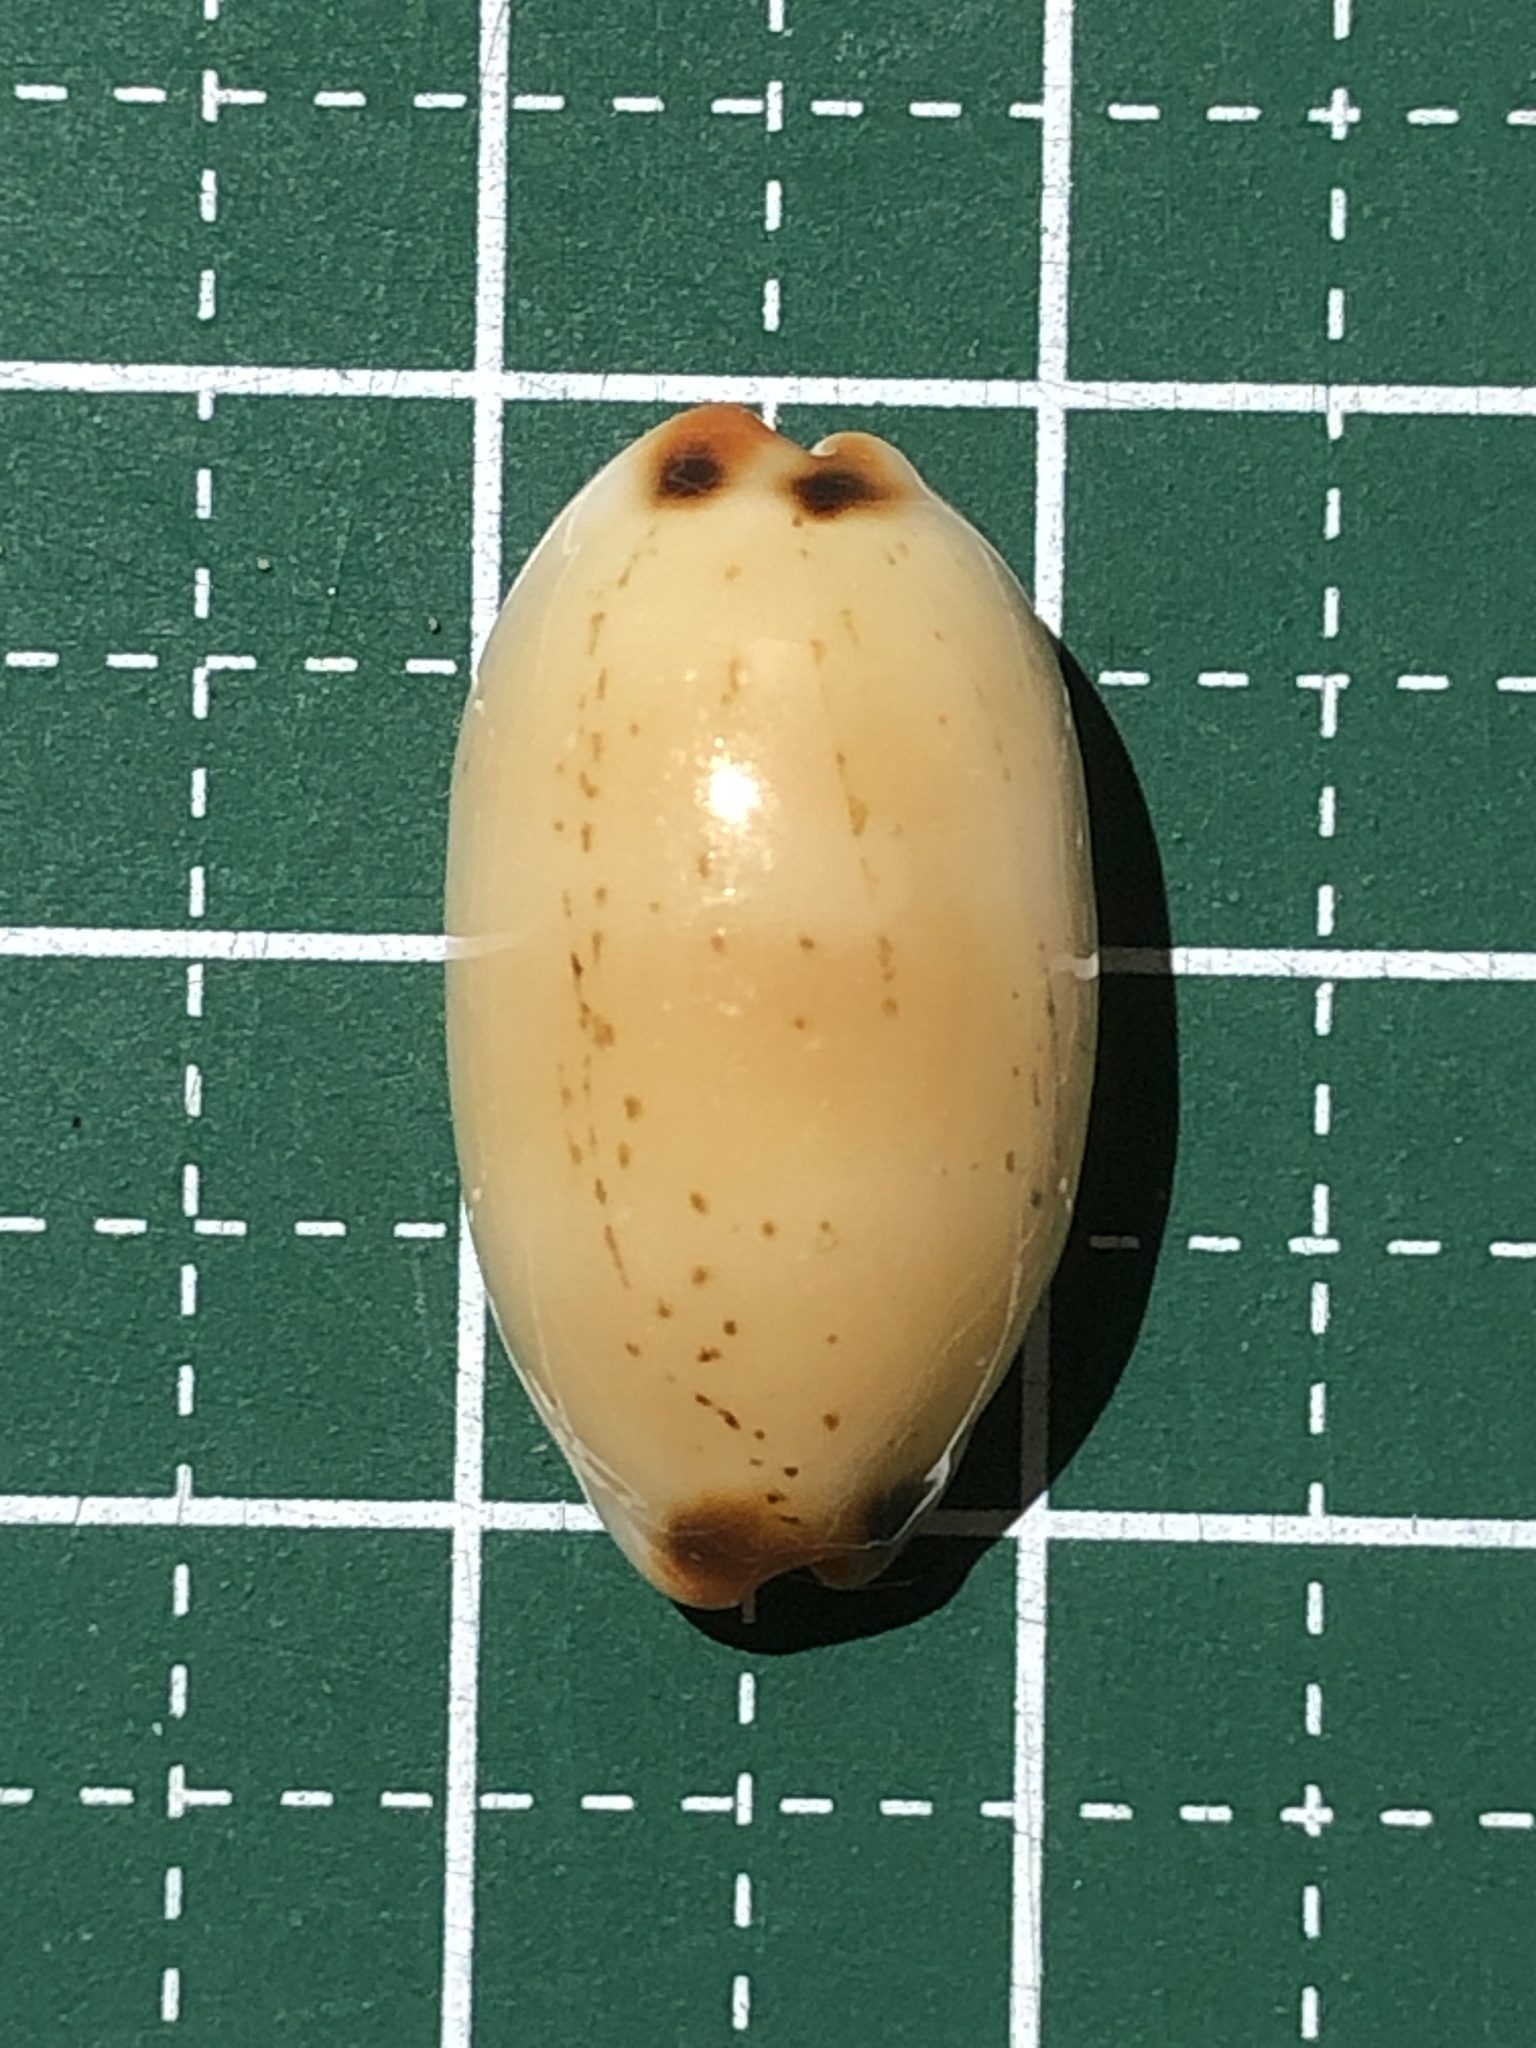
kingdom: Animalia
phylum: Mollusca
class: Gastropoda
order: Littorinimorpha
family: Cypraeidae
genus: Luria
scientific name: Luria isabella
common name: Isabell cowry
